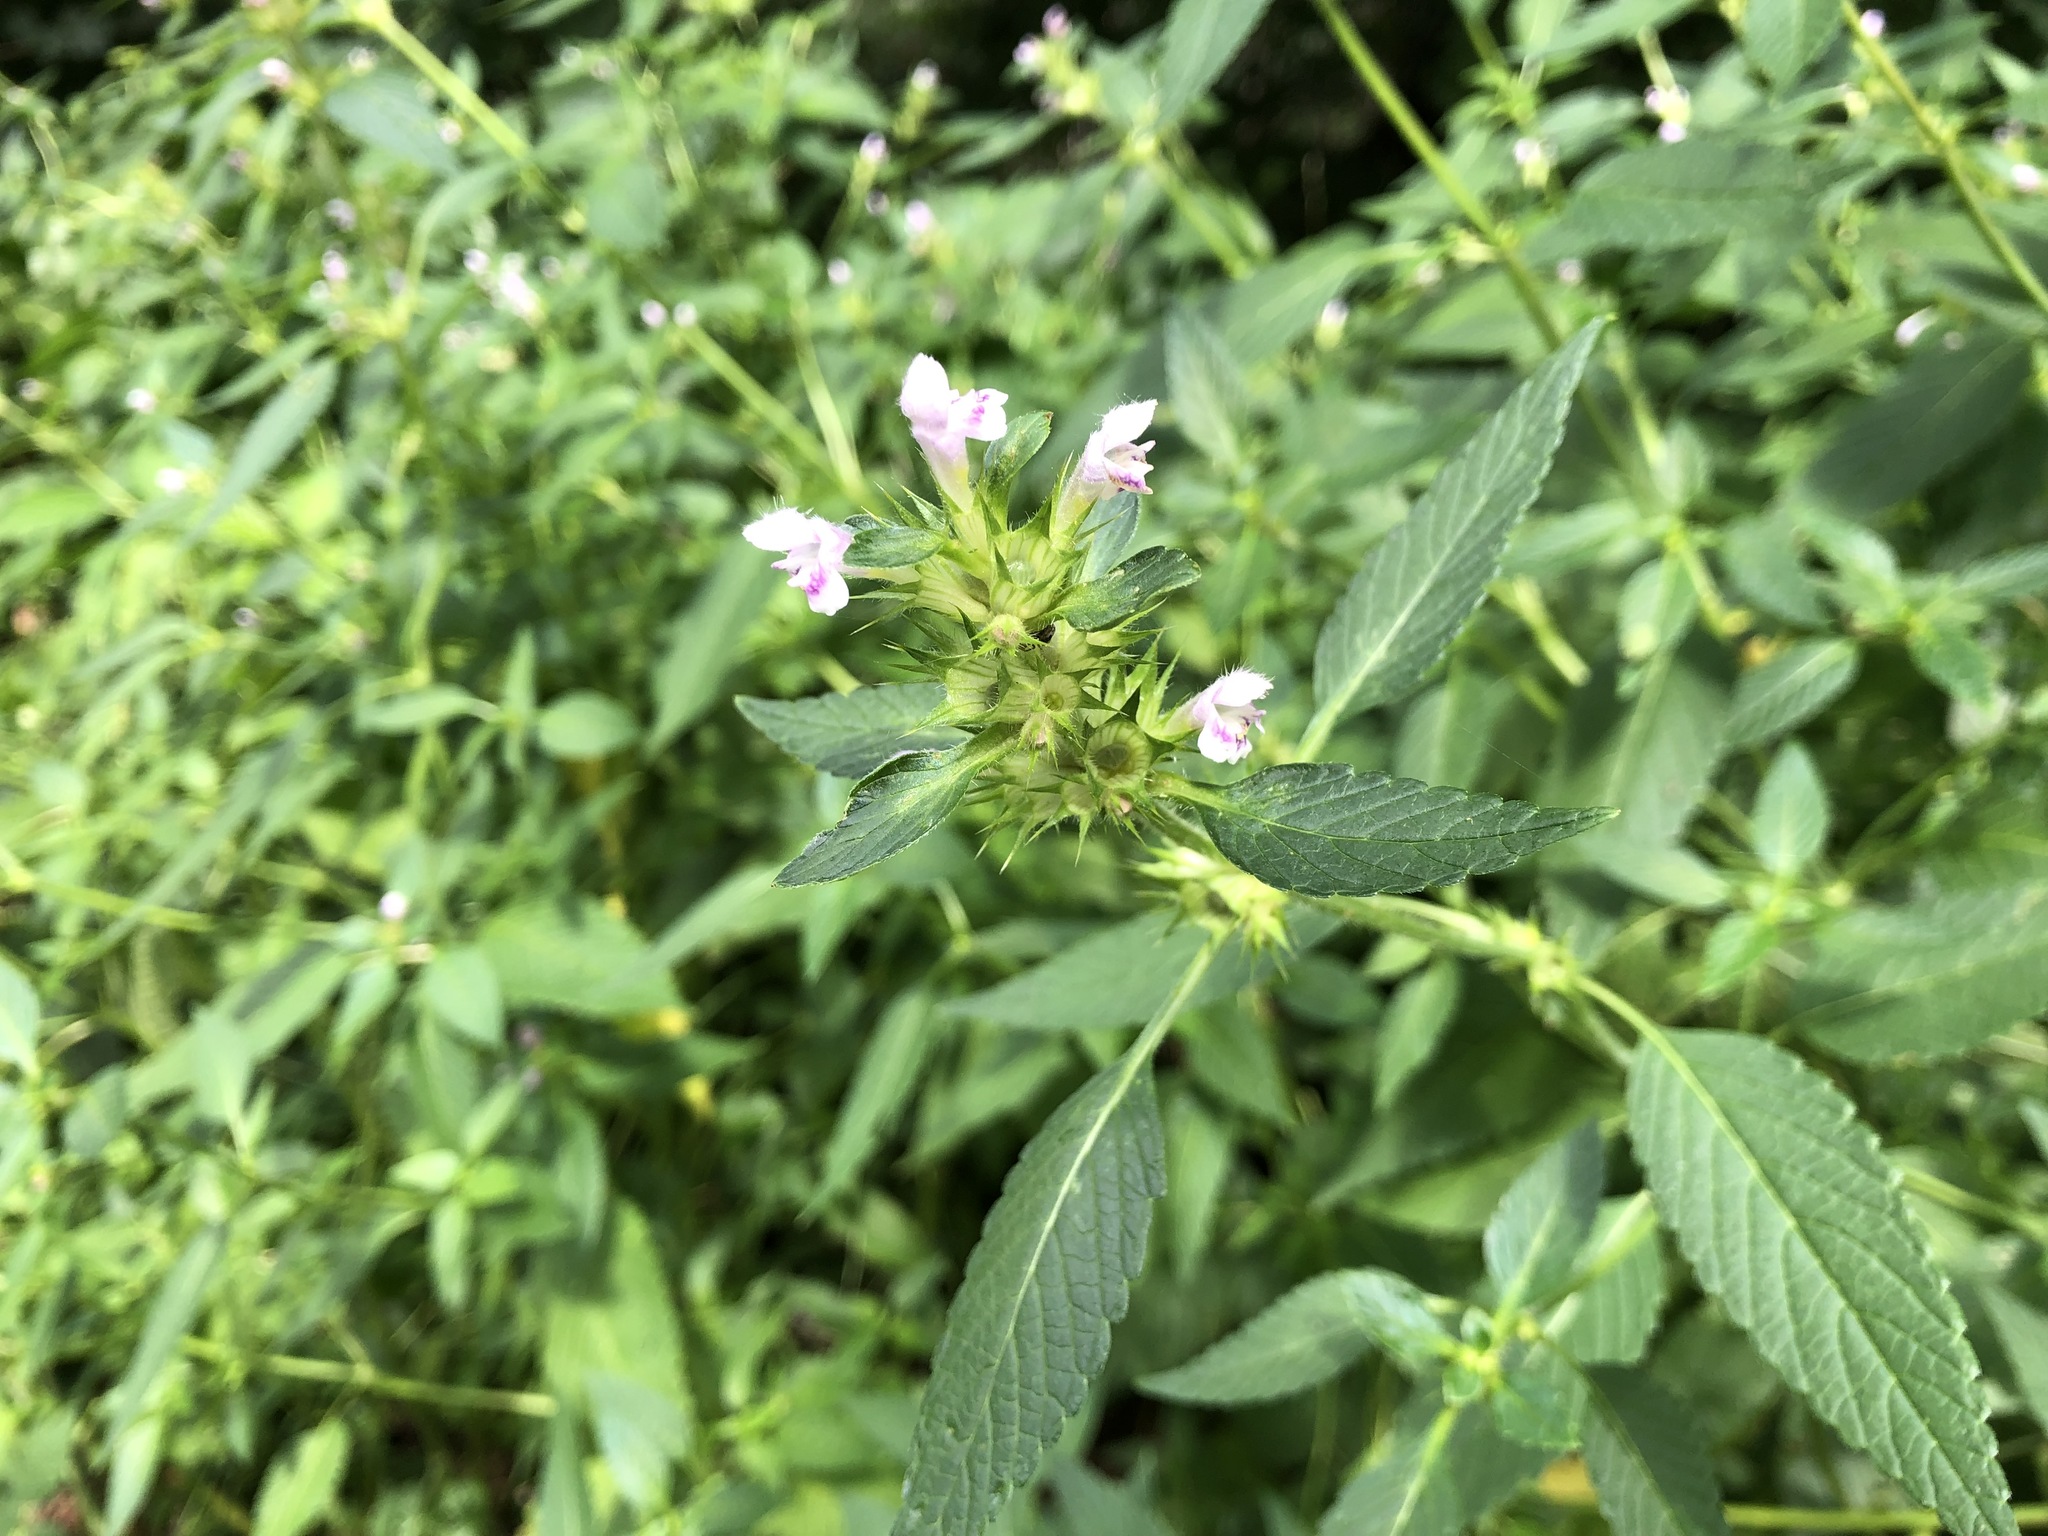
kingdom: Plantae
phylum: Tracheophyta
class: Magnoliopsida
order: Lamiales
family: Lamiaceae
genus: Galeopsis
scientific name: Galeopsis tetrahit
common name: Common hemp-nettle
